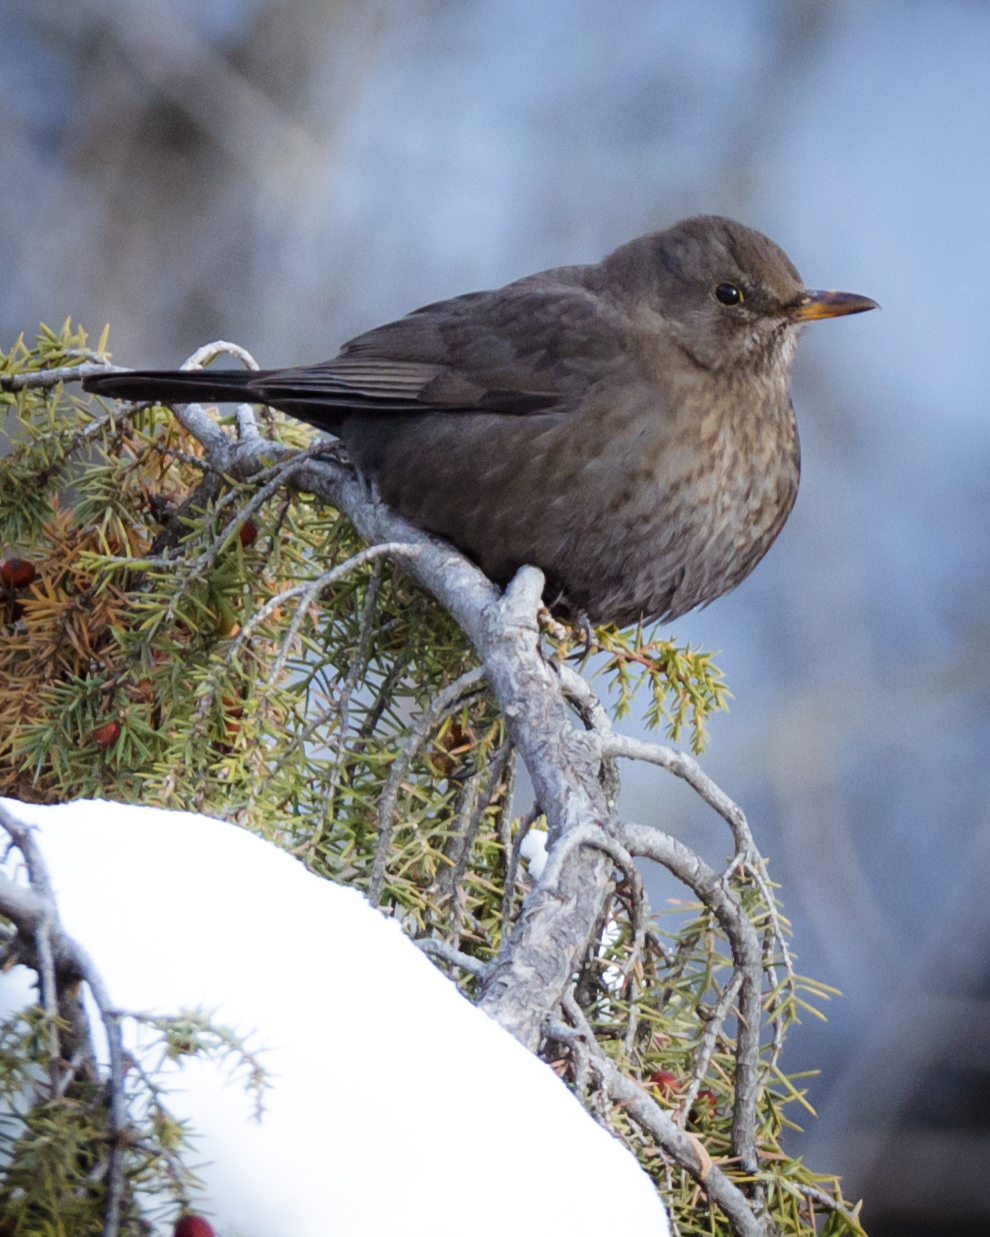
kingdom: Animalia
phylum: Chordata
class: Aves
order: Passeriformes
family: Turdidae
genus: Turdus
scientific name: Turdus merula
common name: Common blackbird
